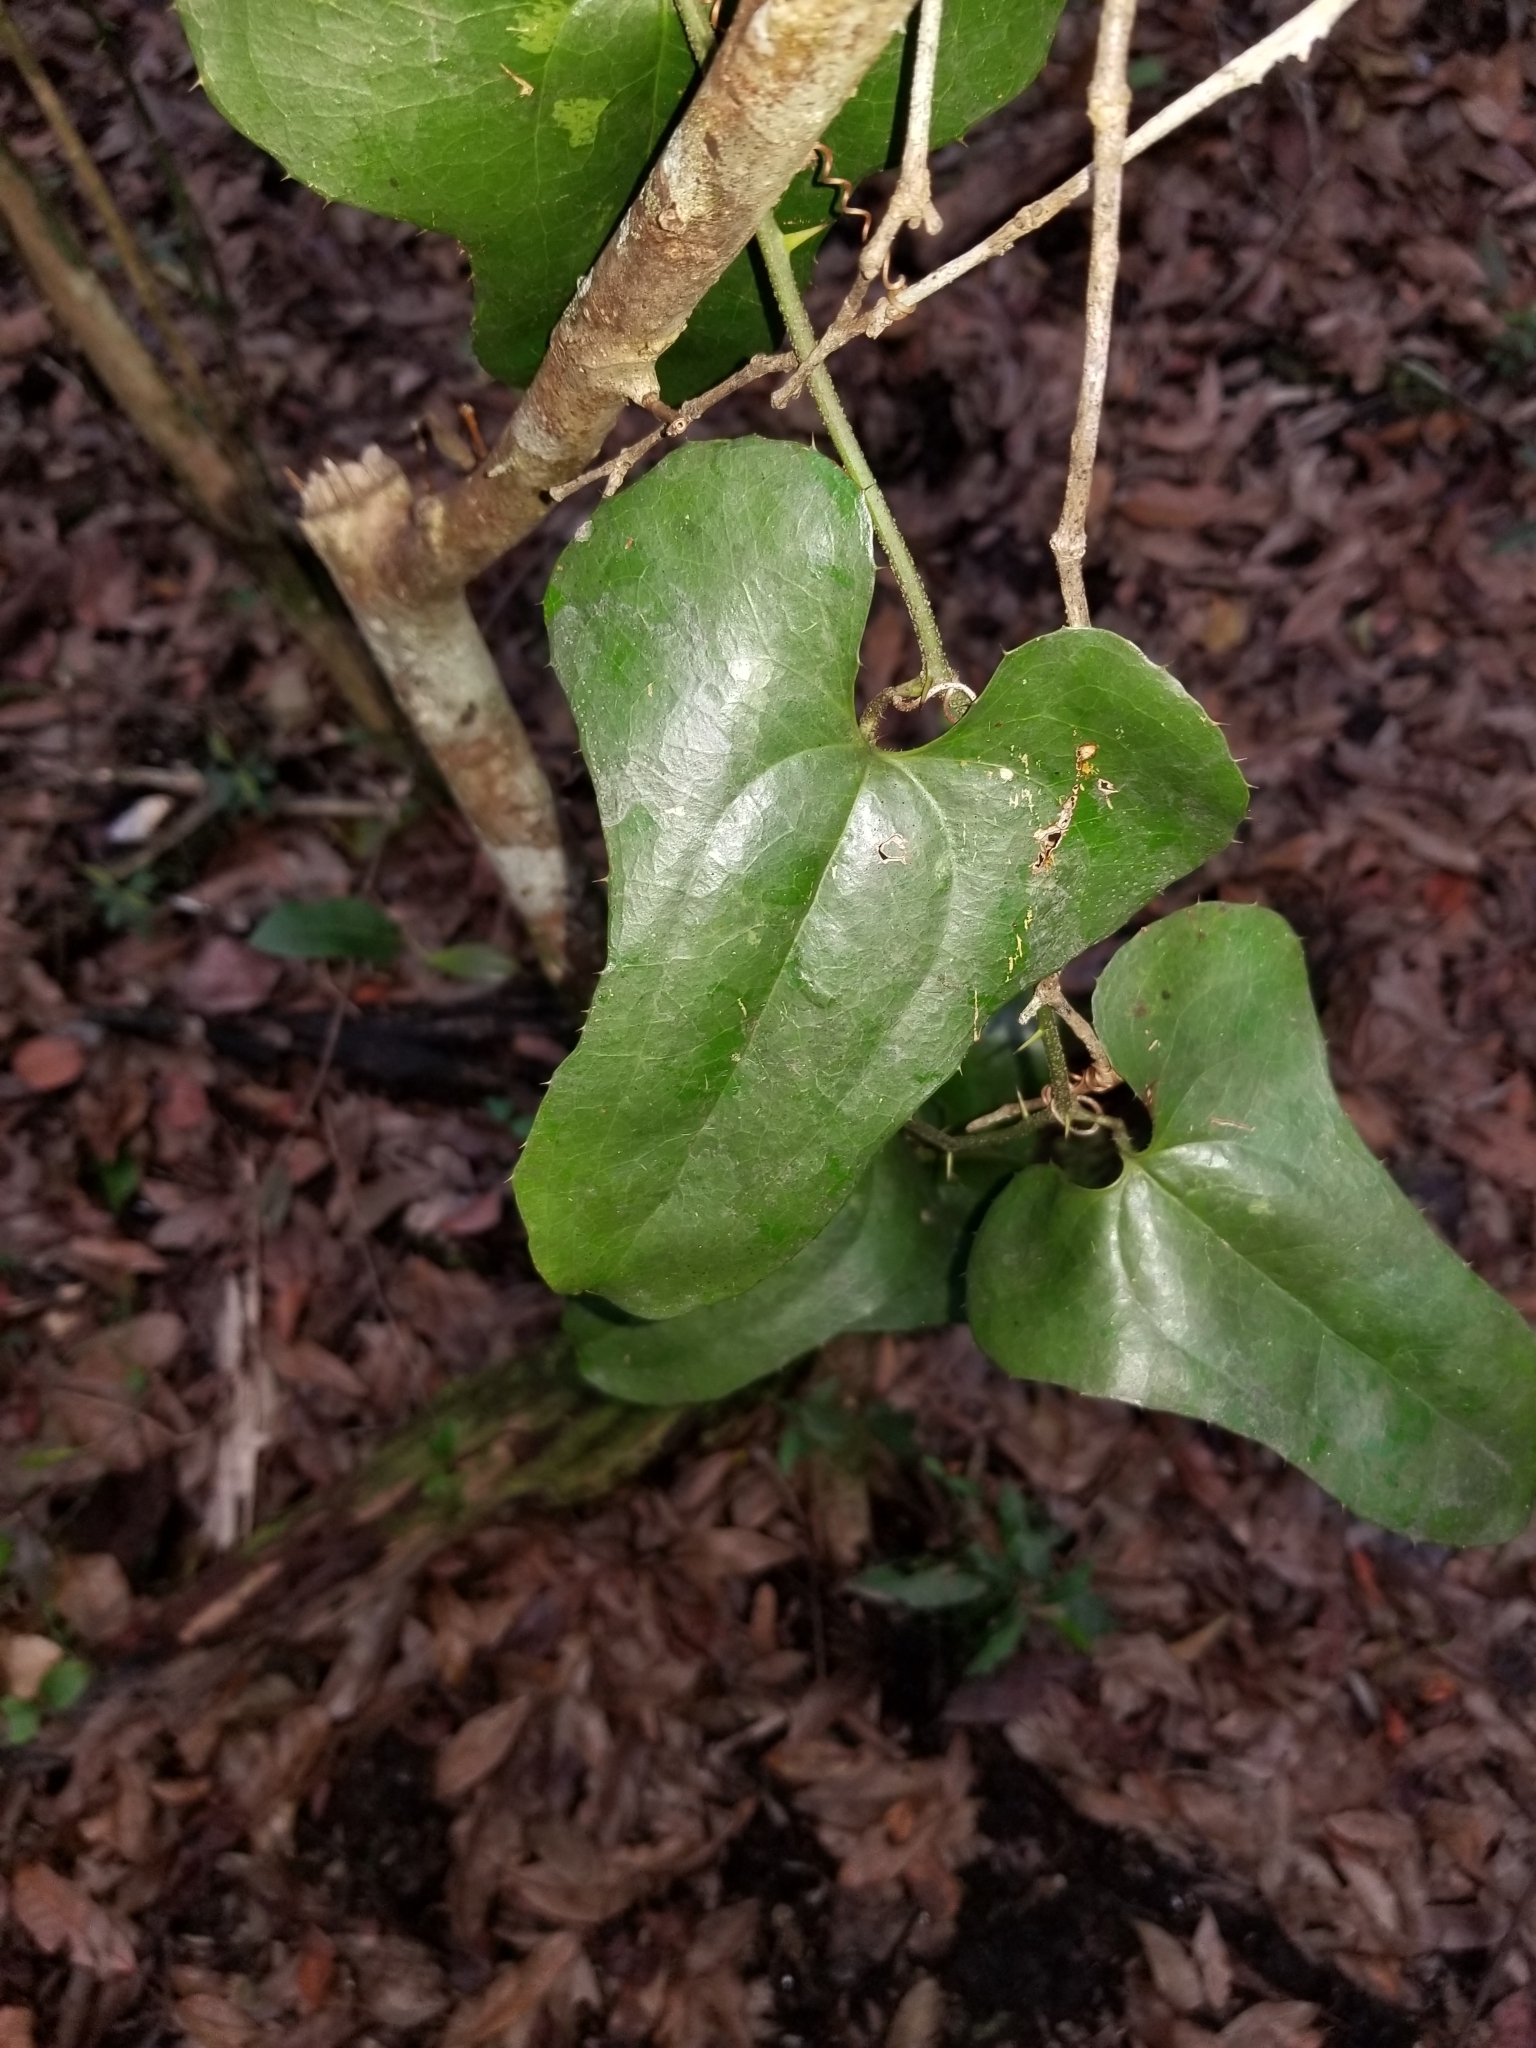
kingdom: Plantae
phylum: Tracheophyta
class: Liliopsida
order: Liliales
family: Smilacaceae
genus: Smilax
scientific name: Smilax bona-nox
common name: Catbrier
